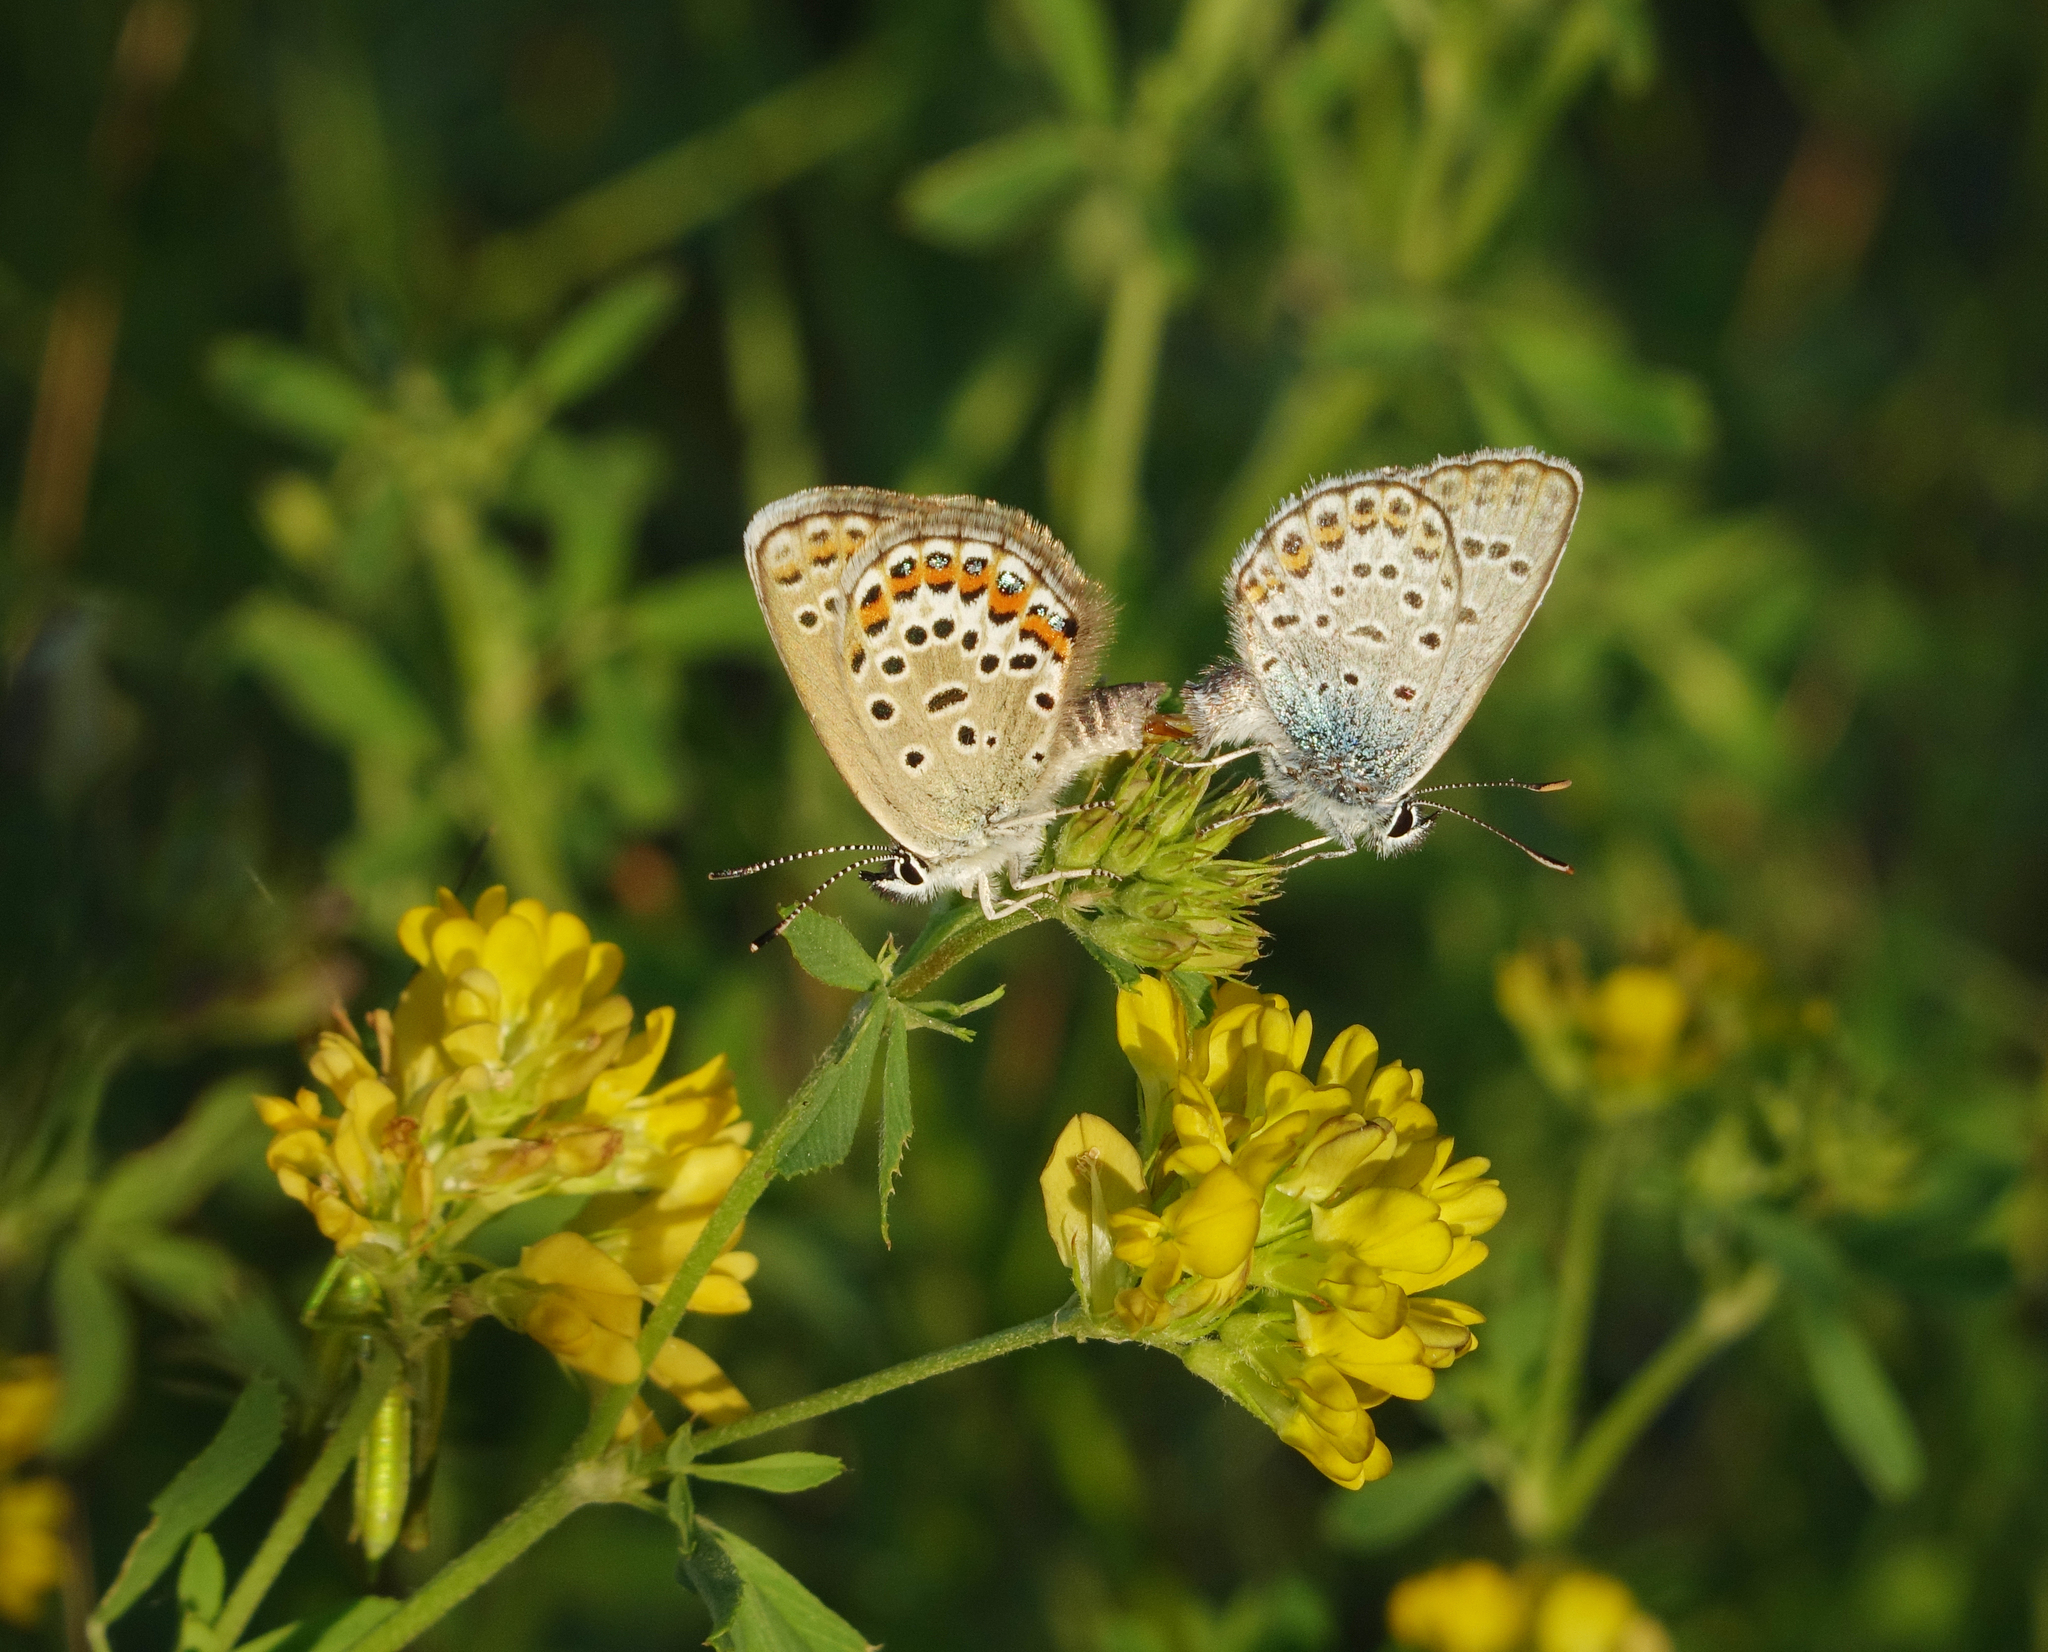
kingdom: Plantae
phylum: Tracheophyta
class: Magnoliopsida
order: Fabales
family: Fabaceae
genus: Medicago
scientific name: Medicago falcata
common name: Sickle medick
